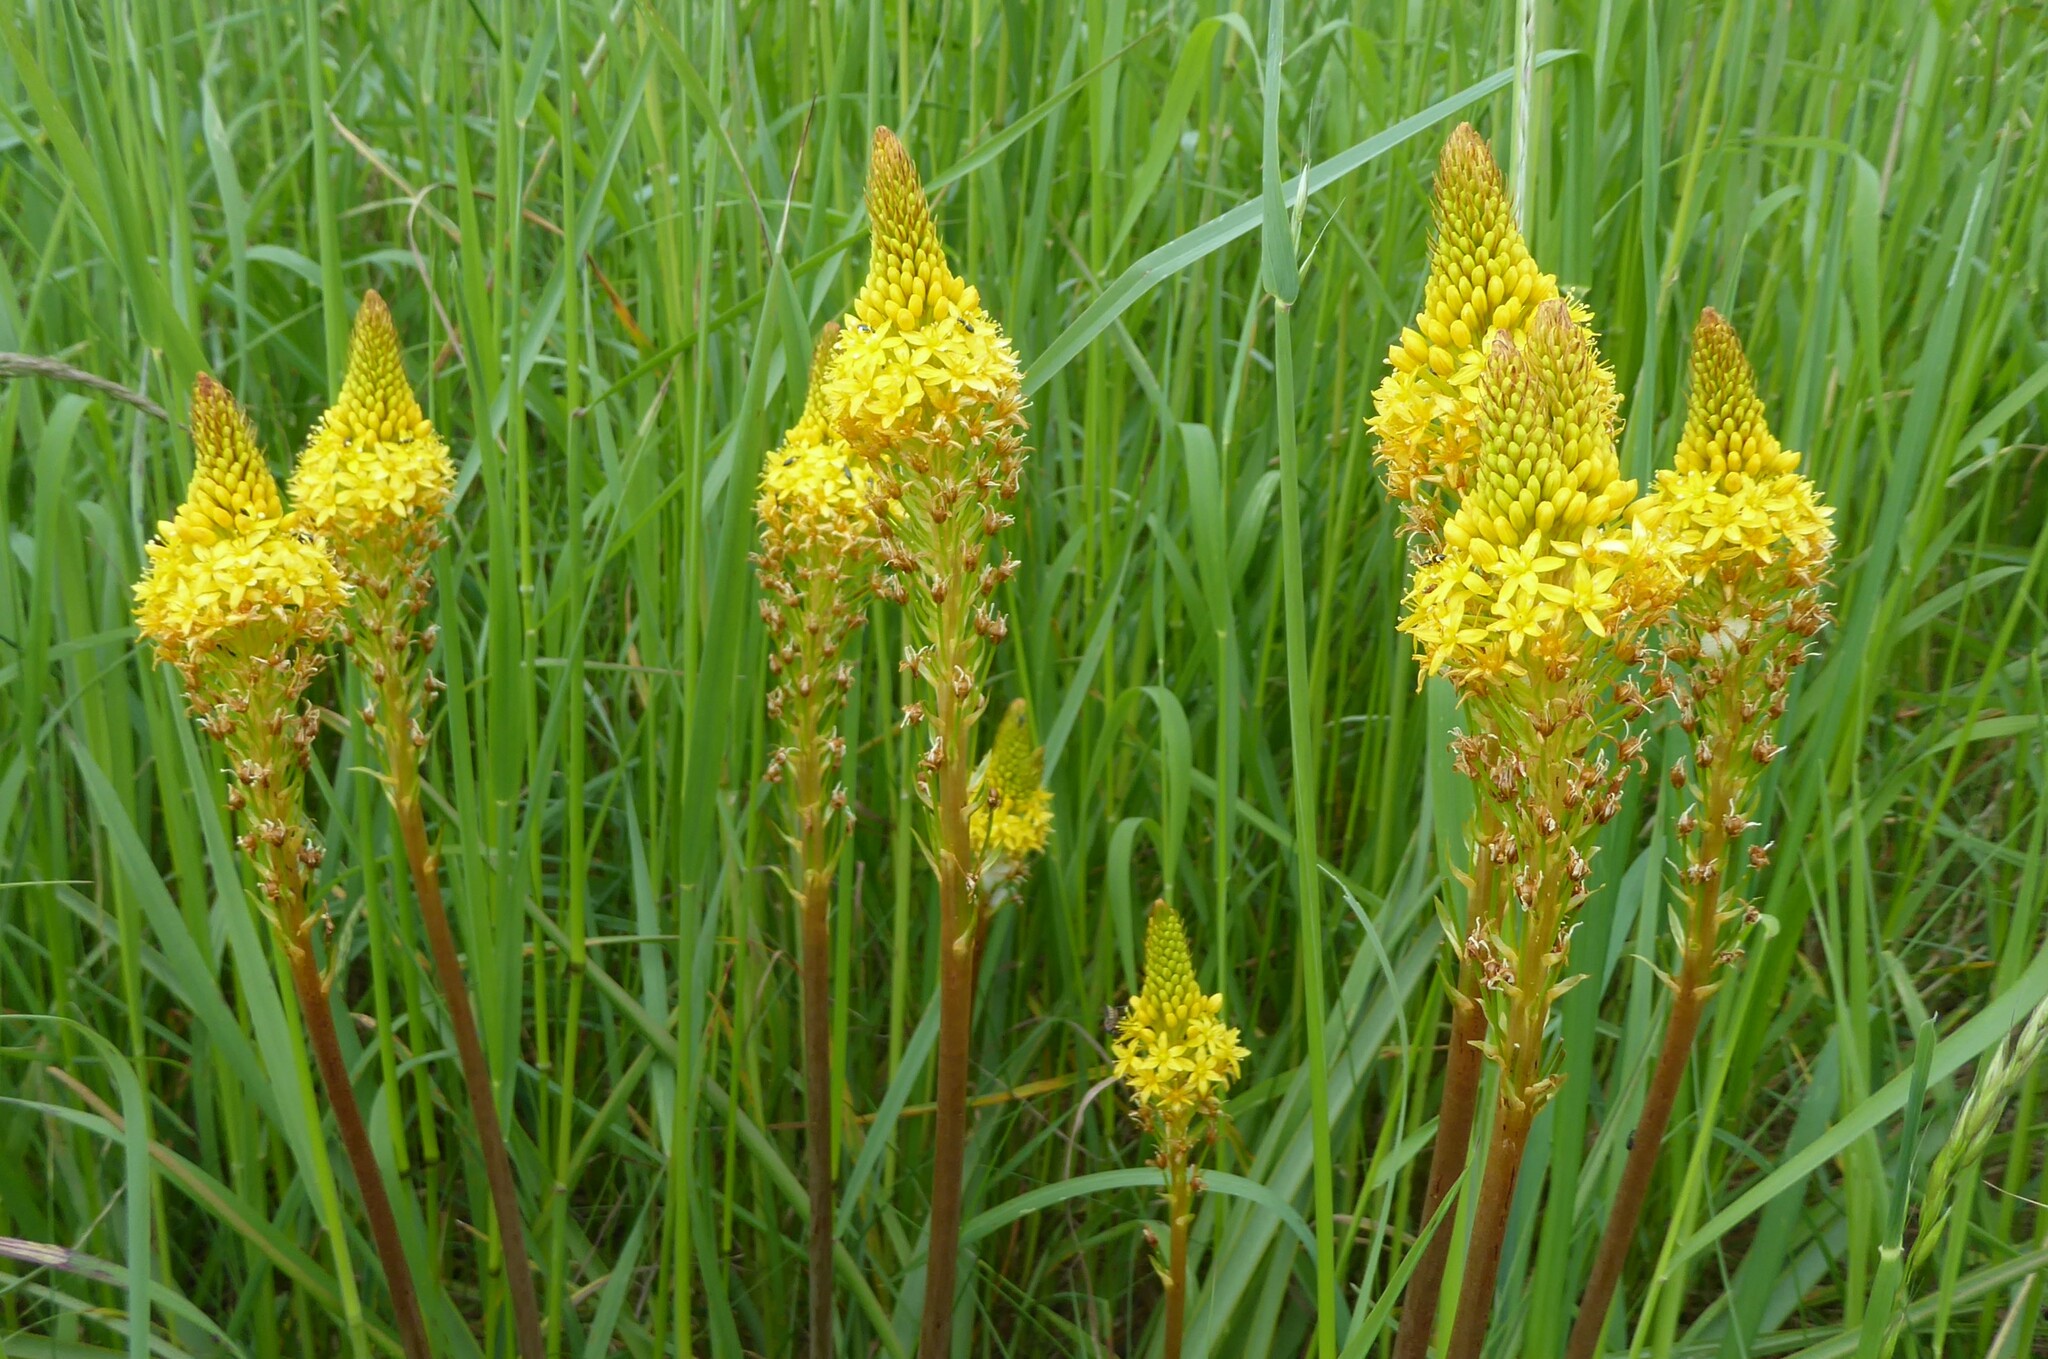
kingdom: Plantae
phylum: Tracheophyta
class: Liliopsida
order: Asparagales
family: Asphodelaceae
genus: Bulbinella
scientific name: Bulbinella angustifolia
